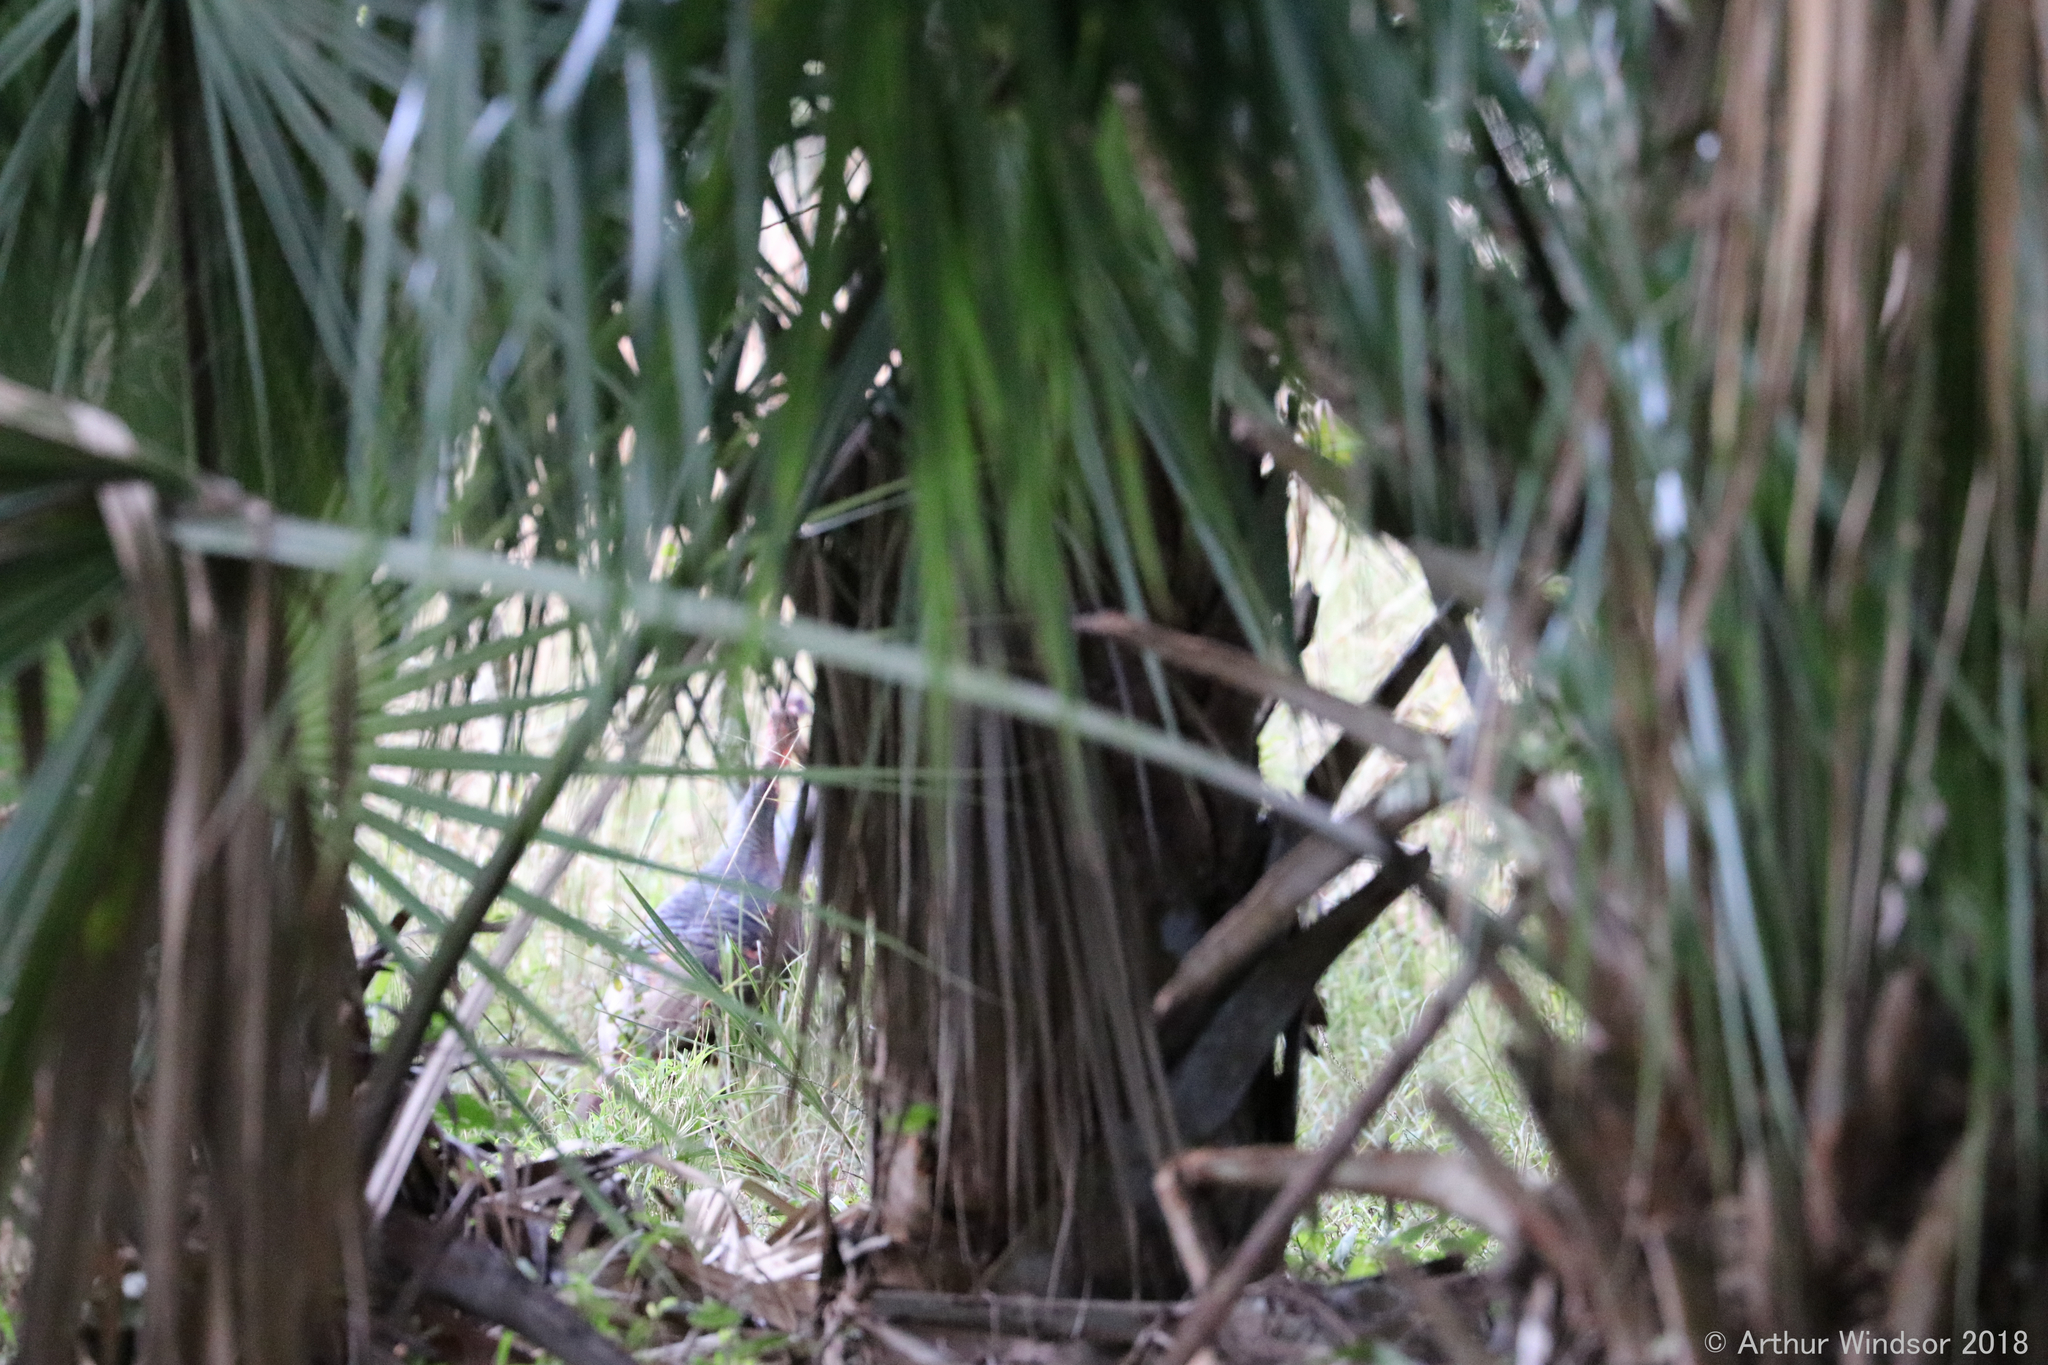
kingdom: Animalia
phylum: Chordata
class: Aves
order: Galliformes
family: Phasianidae
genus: Meleagris
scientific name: Meleagris gallopavo
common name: Wild turkey
